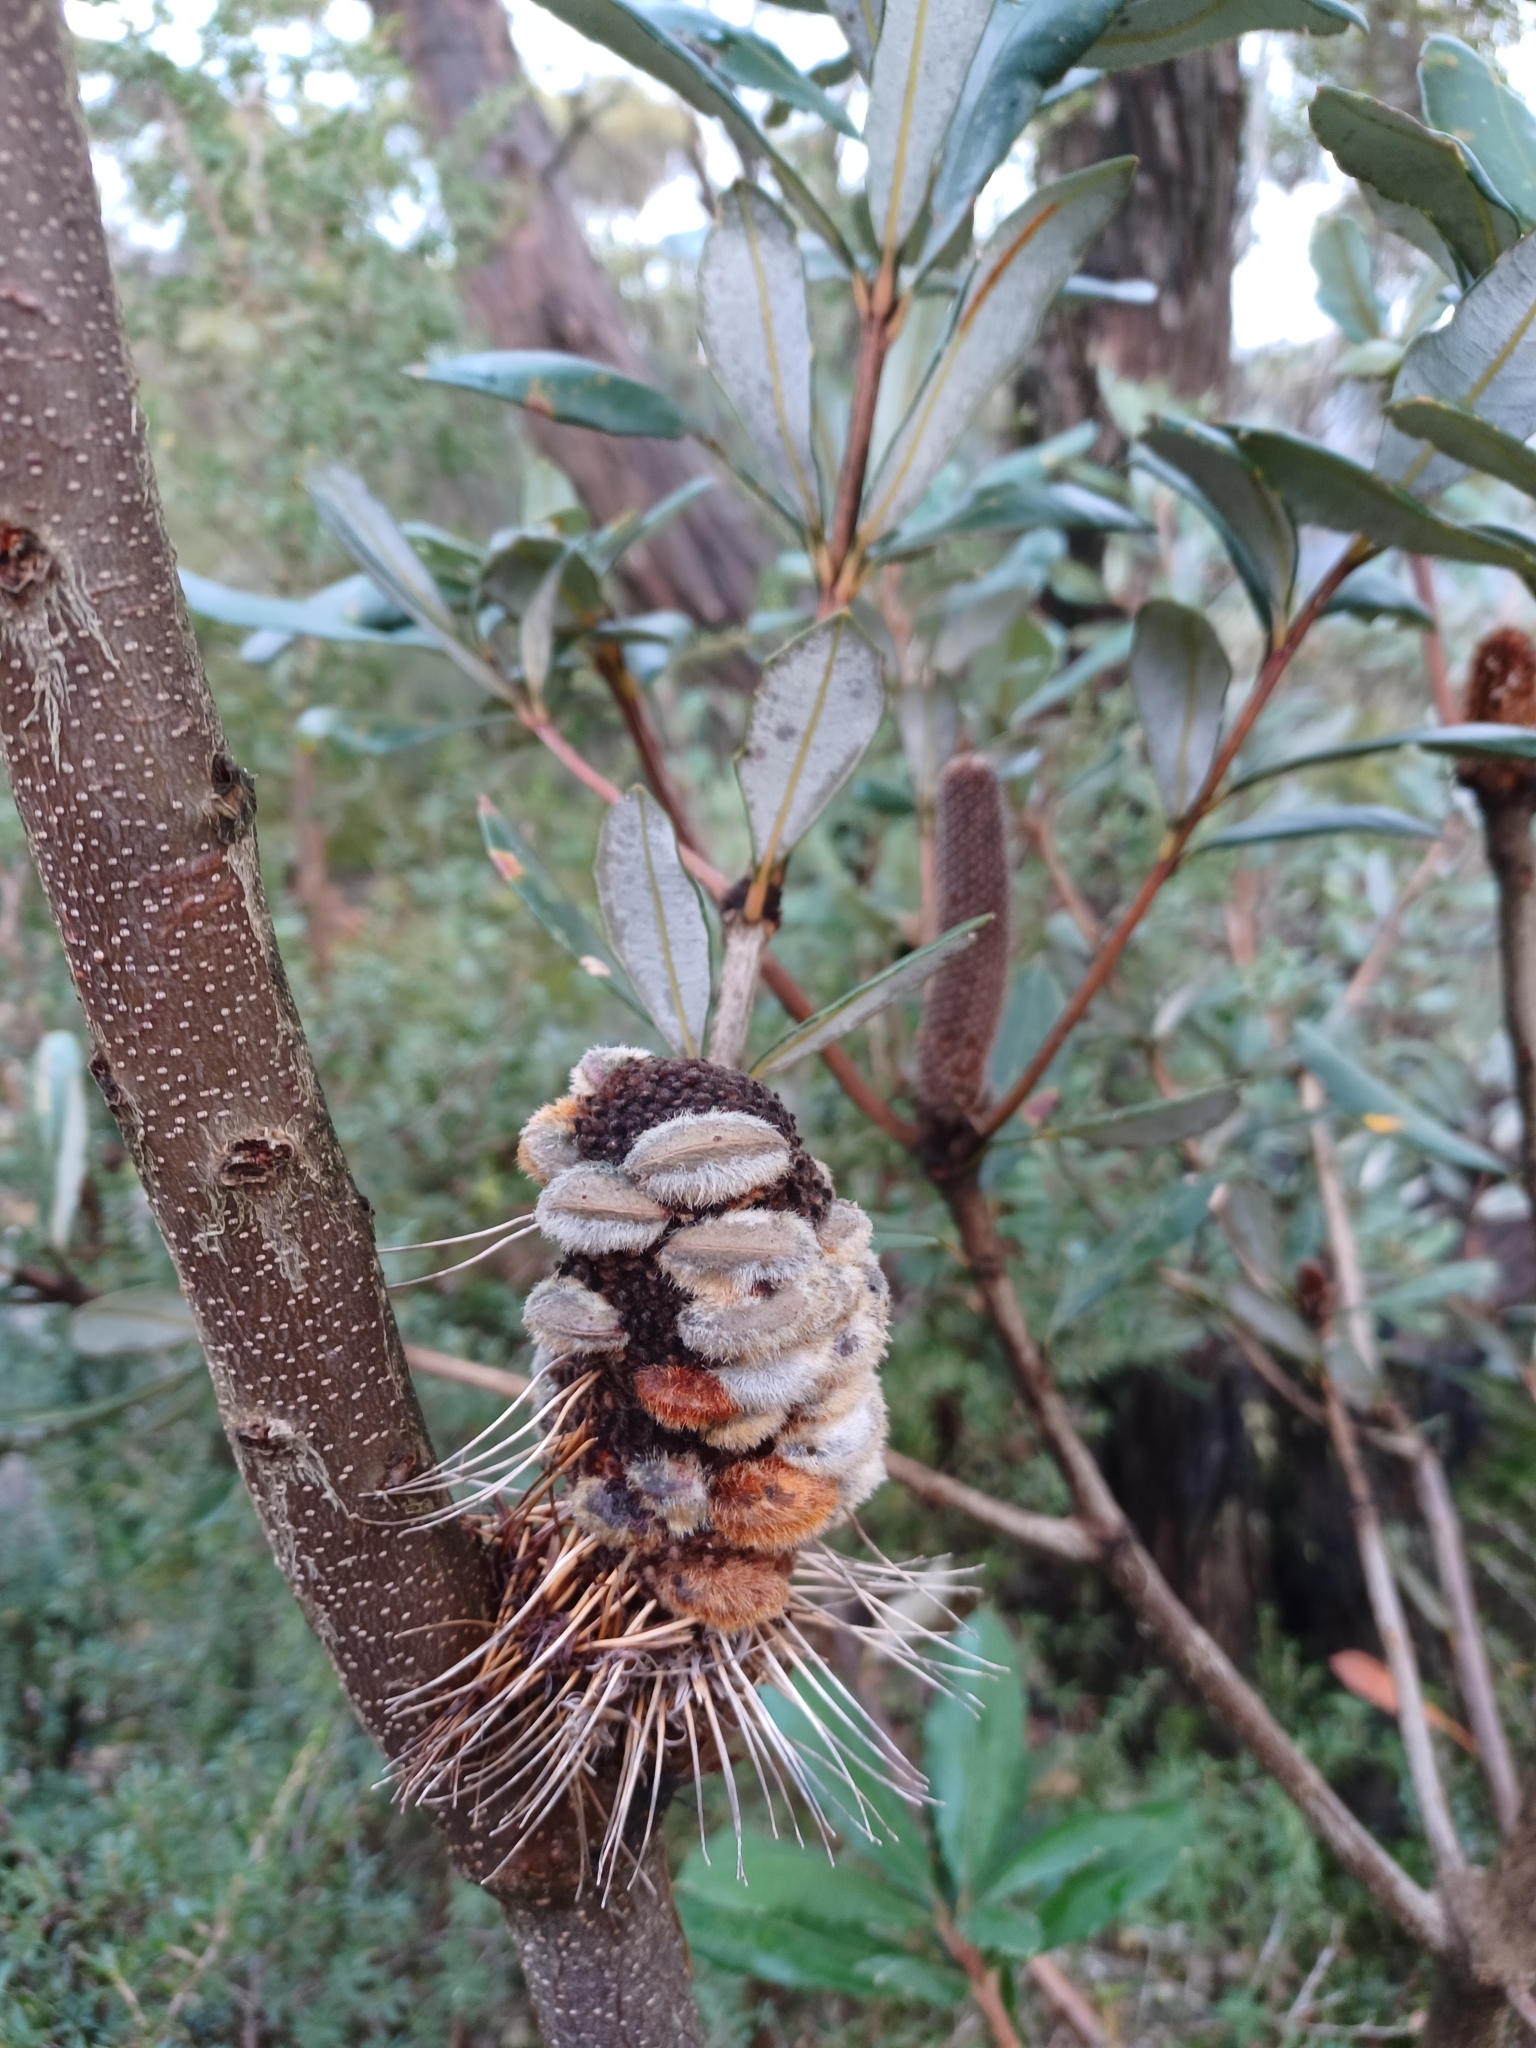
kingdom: Plantae
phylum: Tracheophyta
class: Magnoliopsida
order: Proteales
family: Proteaceae
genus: Banksia
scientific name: Banksia saxicola
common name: Grampians banksia
